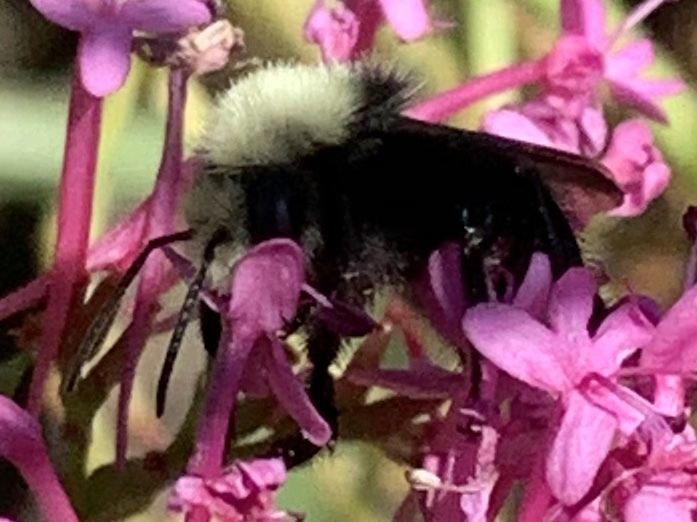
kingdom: Animalia
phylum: Arthropoda
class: Insecta
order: Hymenoptera
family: Apidae
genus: Pyrobombus
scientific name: Pyrobombus
